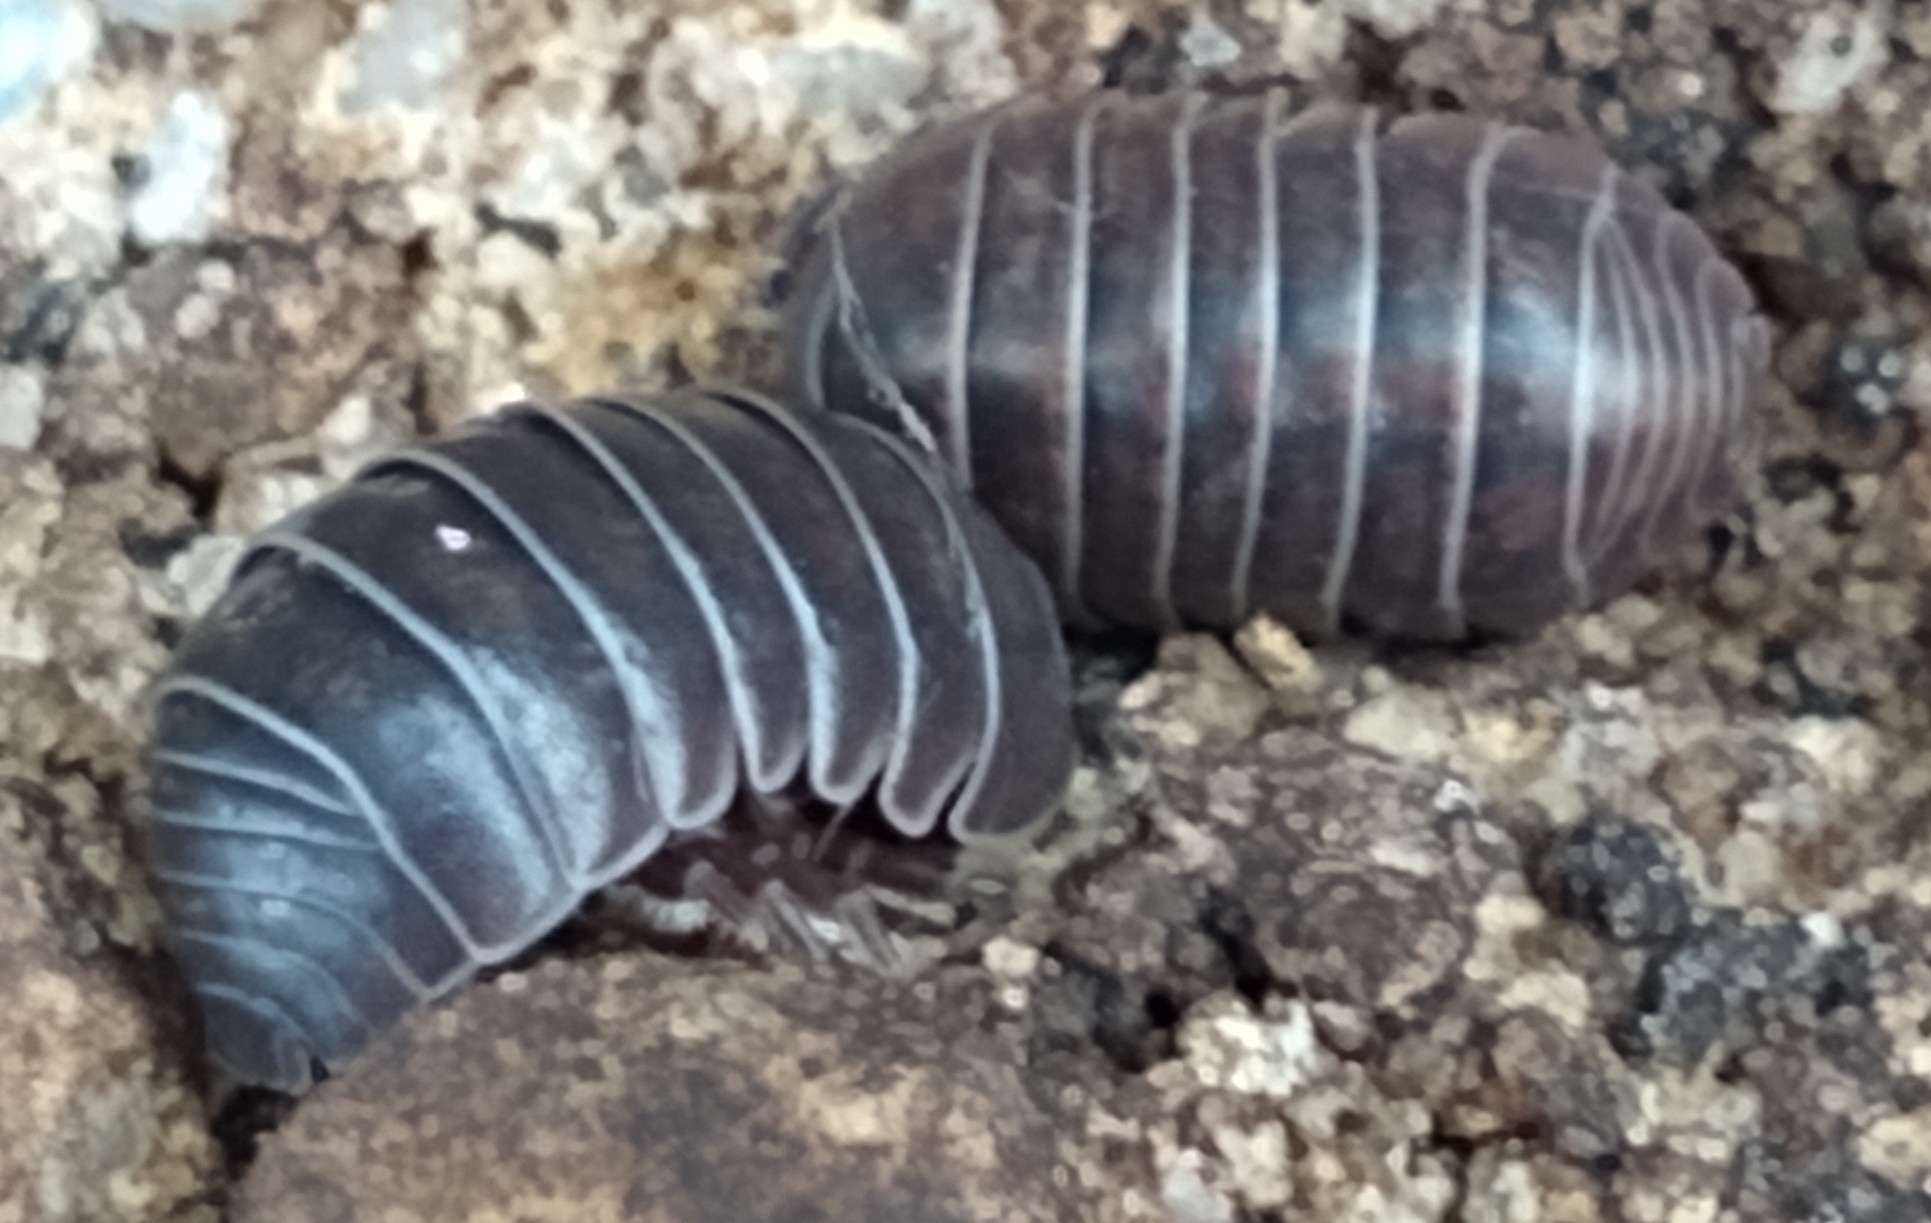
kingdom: Animalia
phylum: Arthropoda
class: Malacostraca
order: Isopoda
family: Armadillidiidae
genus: Armadillidium
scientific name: Armadillidium vulgare
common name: Common pill woodlouse
